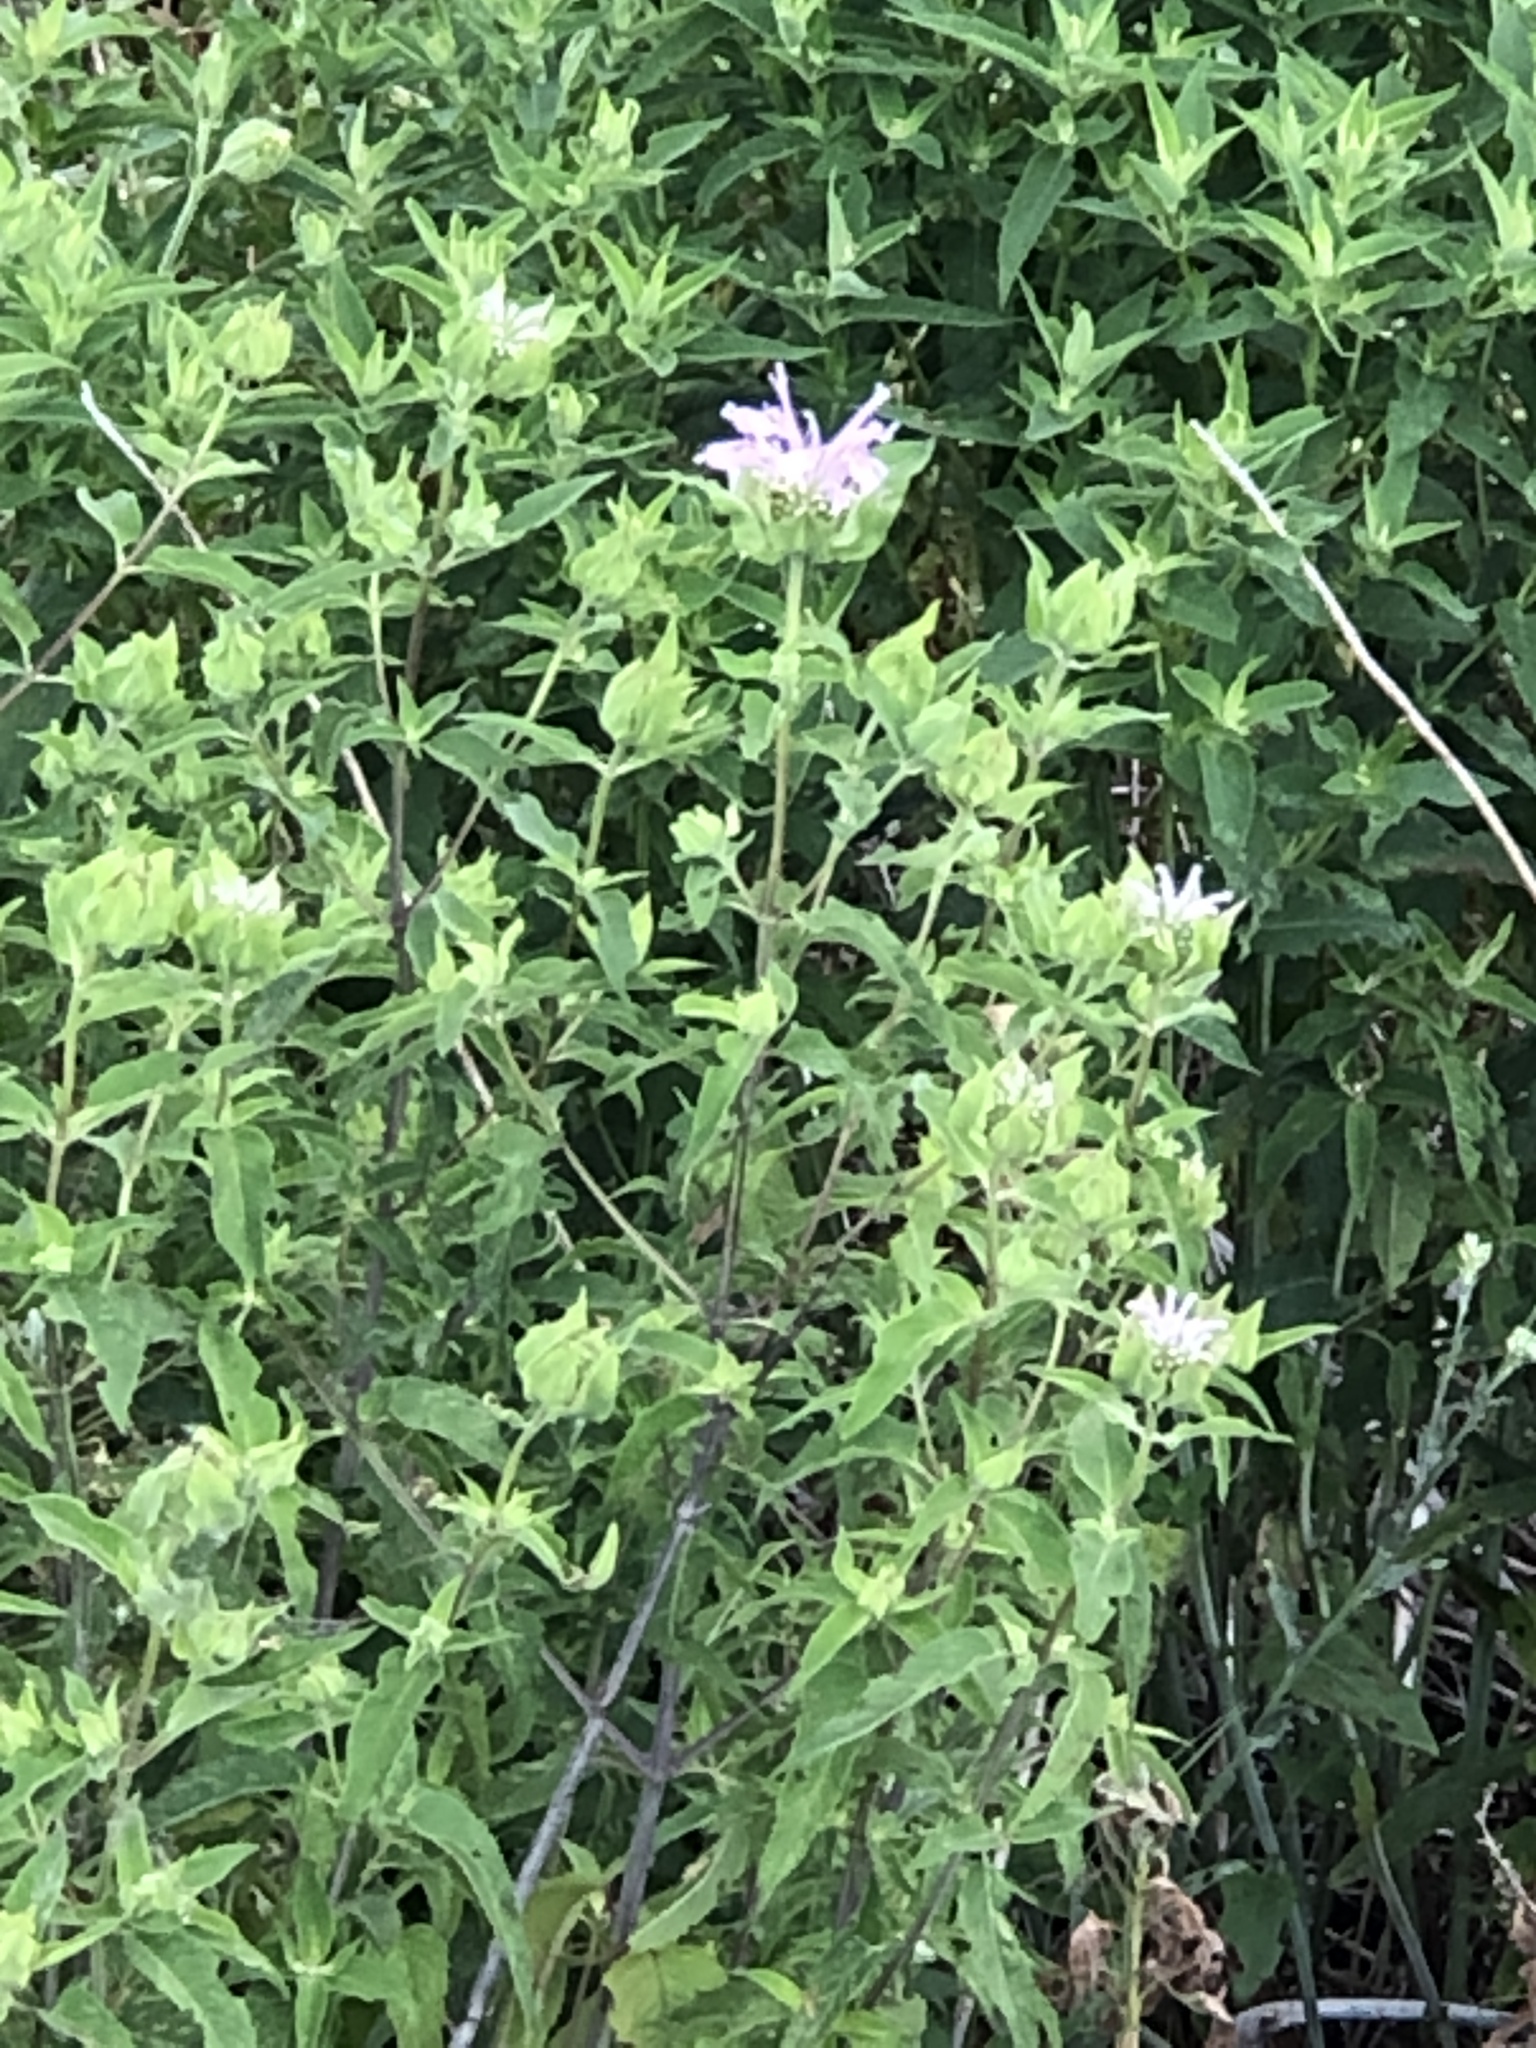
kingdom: Plantae
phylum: Tracheophyta
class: Magnoliopsida
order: Lamiales
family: Lamiaceae
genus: Monarda
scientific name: Monarda fistulosa
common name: Purple beebalm
